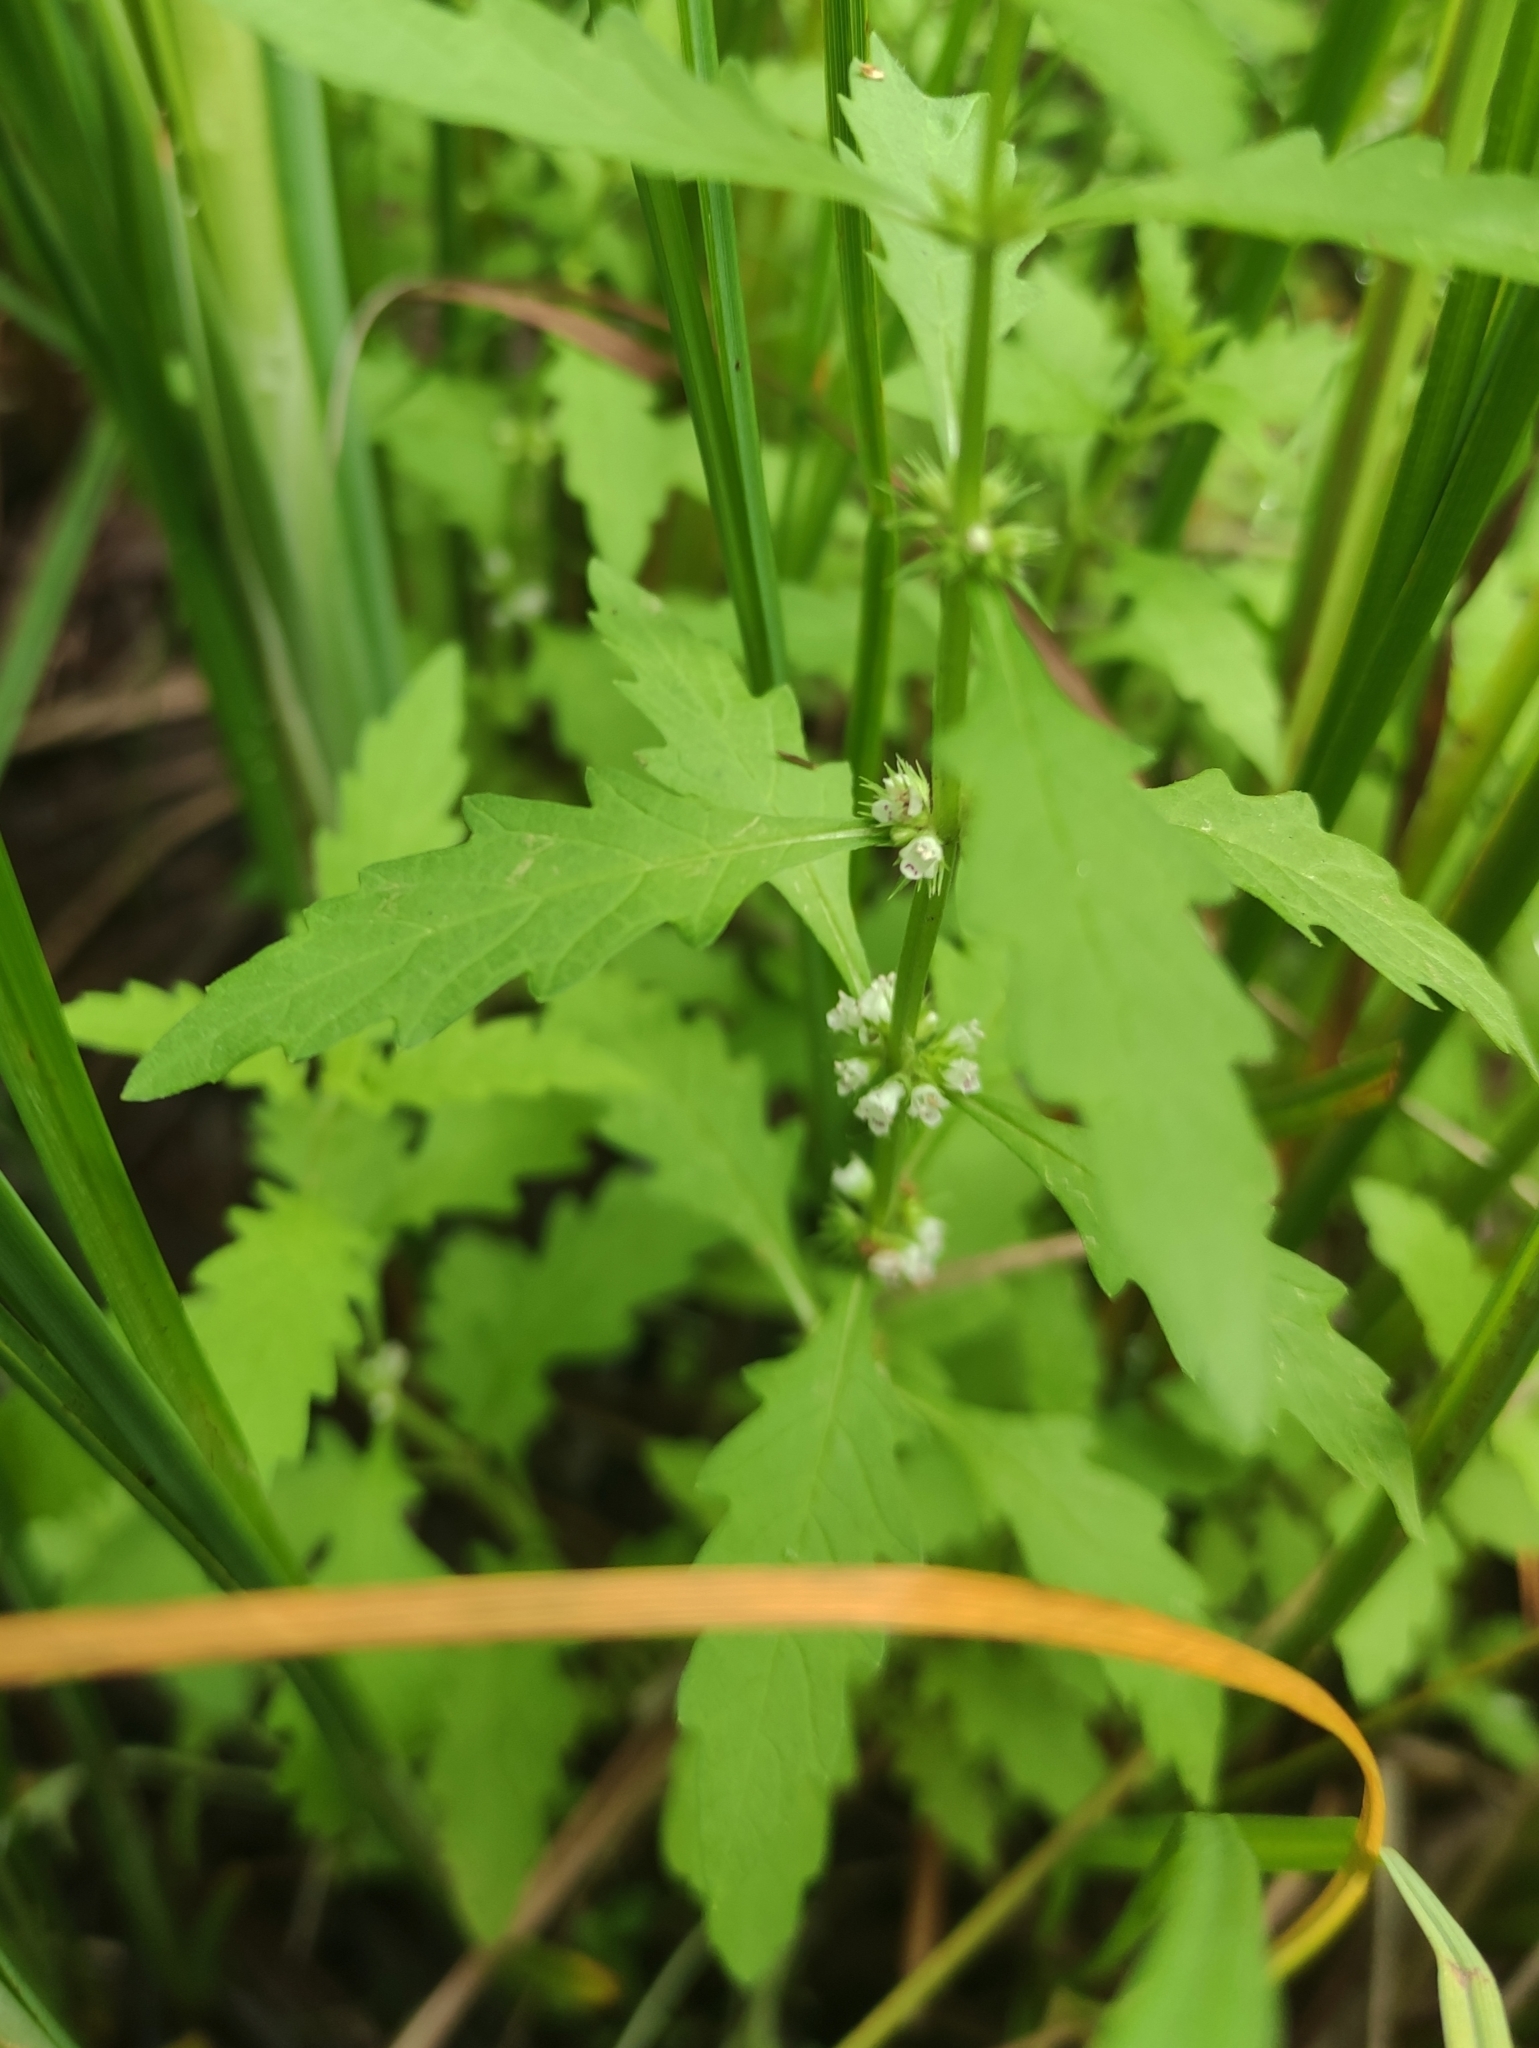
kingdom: Plantae
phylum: Tracheophyta
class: Magnoliopsida
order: Lamiales
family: Lamiaceae
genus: Lycopus
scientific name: Lycopus europaeus
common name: European bugleweed
